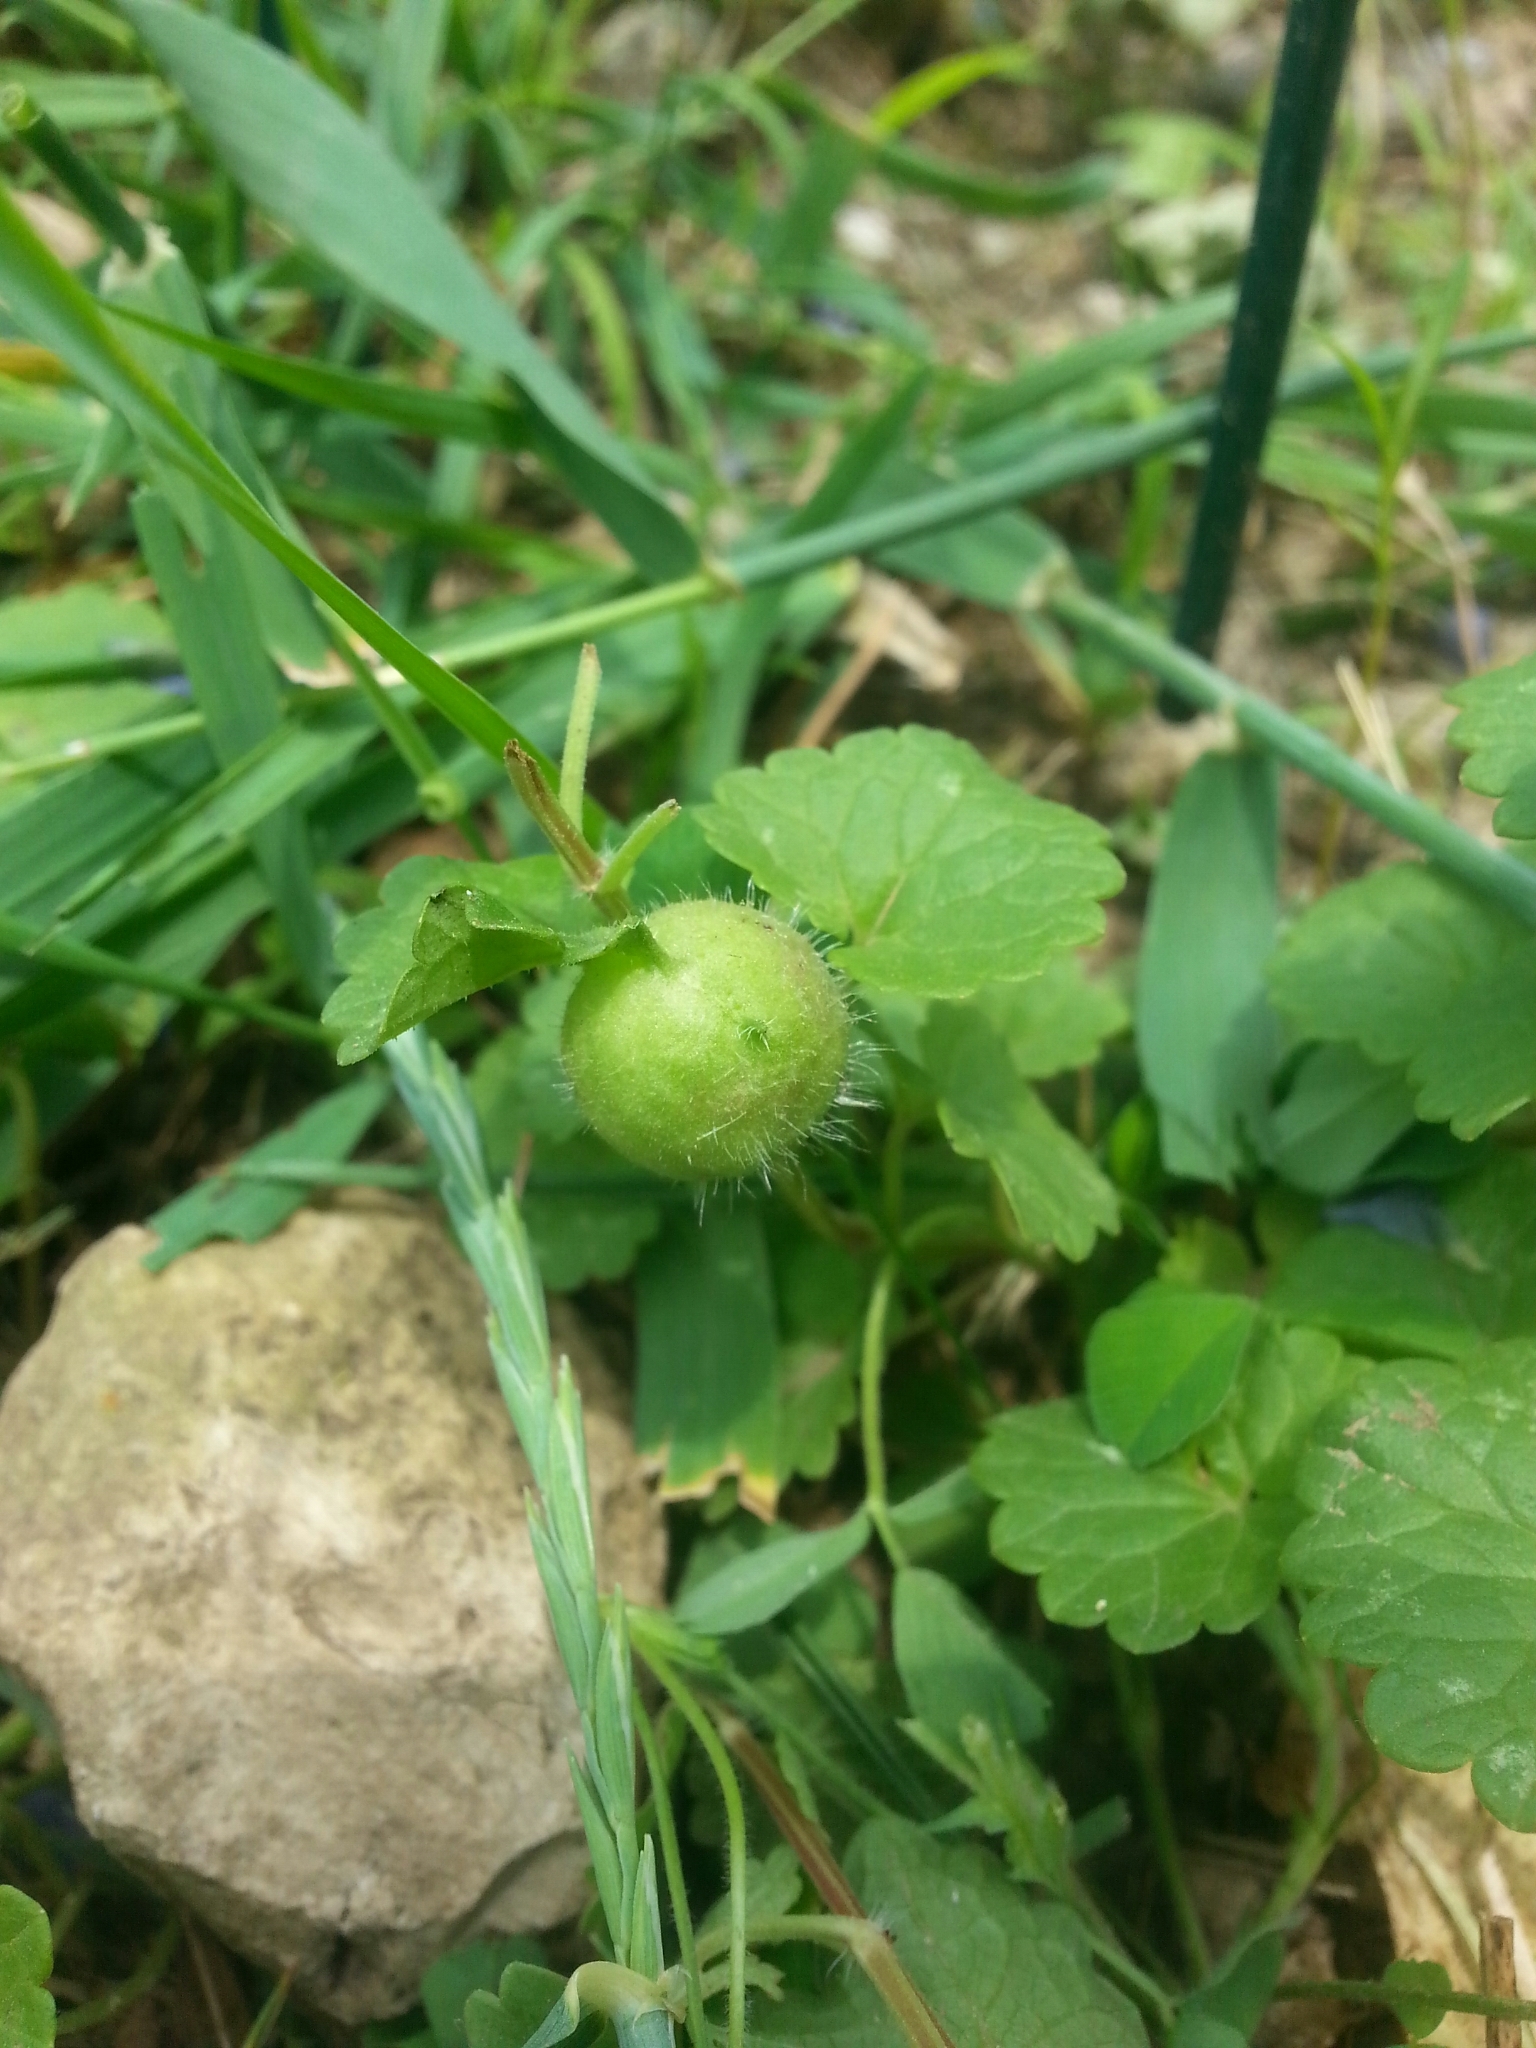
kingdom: Animalia
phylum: Arthropoda
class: Insecta
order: Hymenoptera
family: Cynipidae
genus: Liposthenes
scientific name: Liposthenes glechomae
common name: Gall wasp
